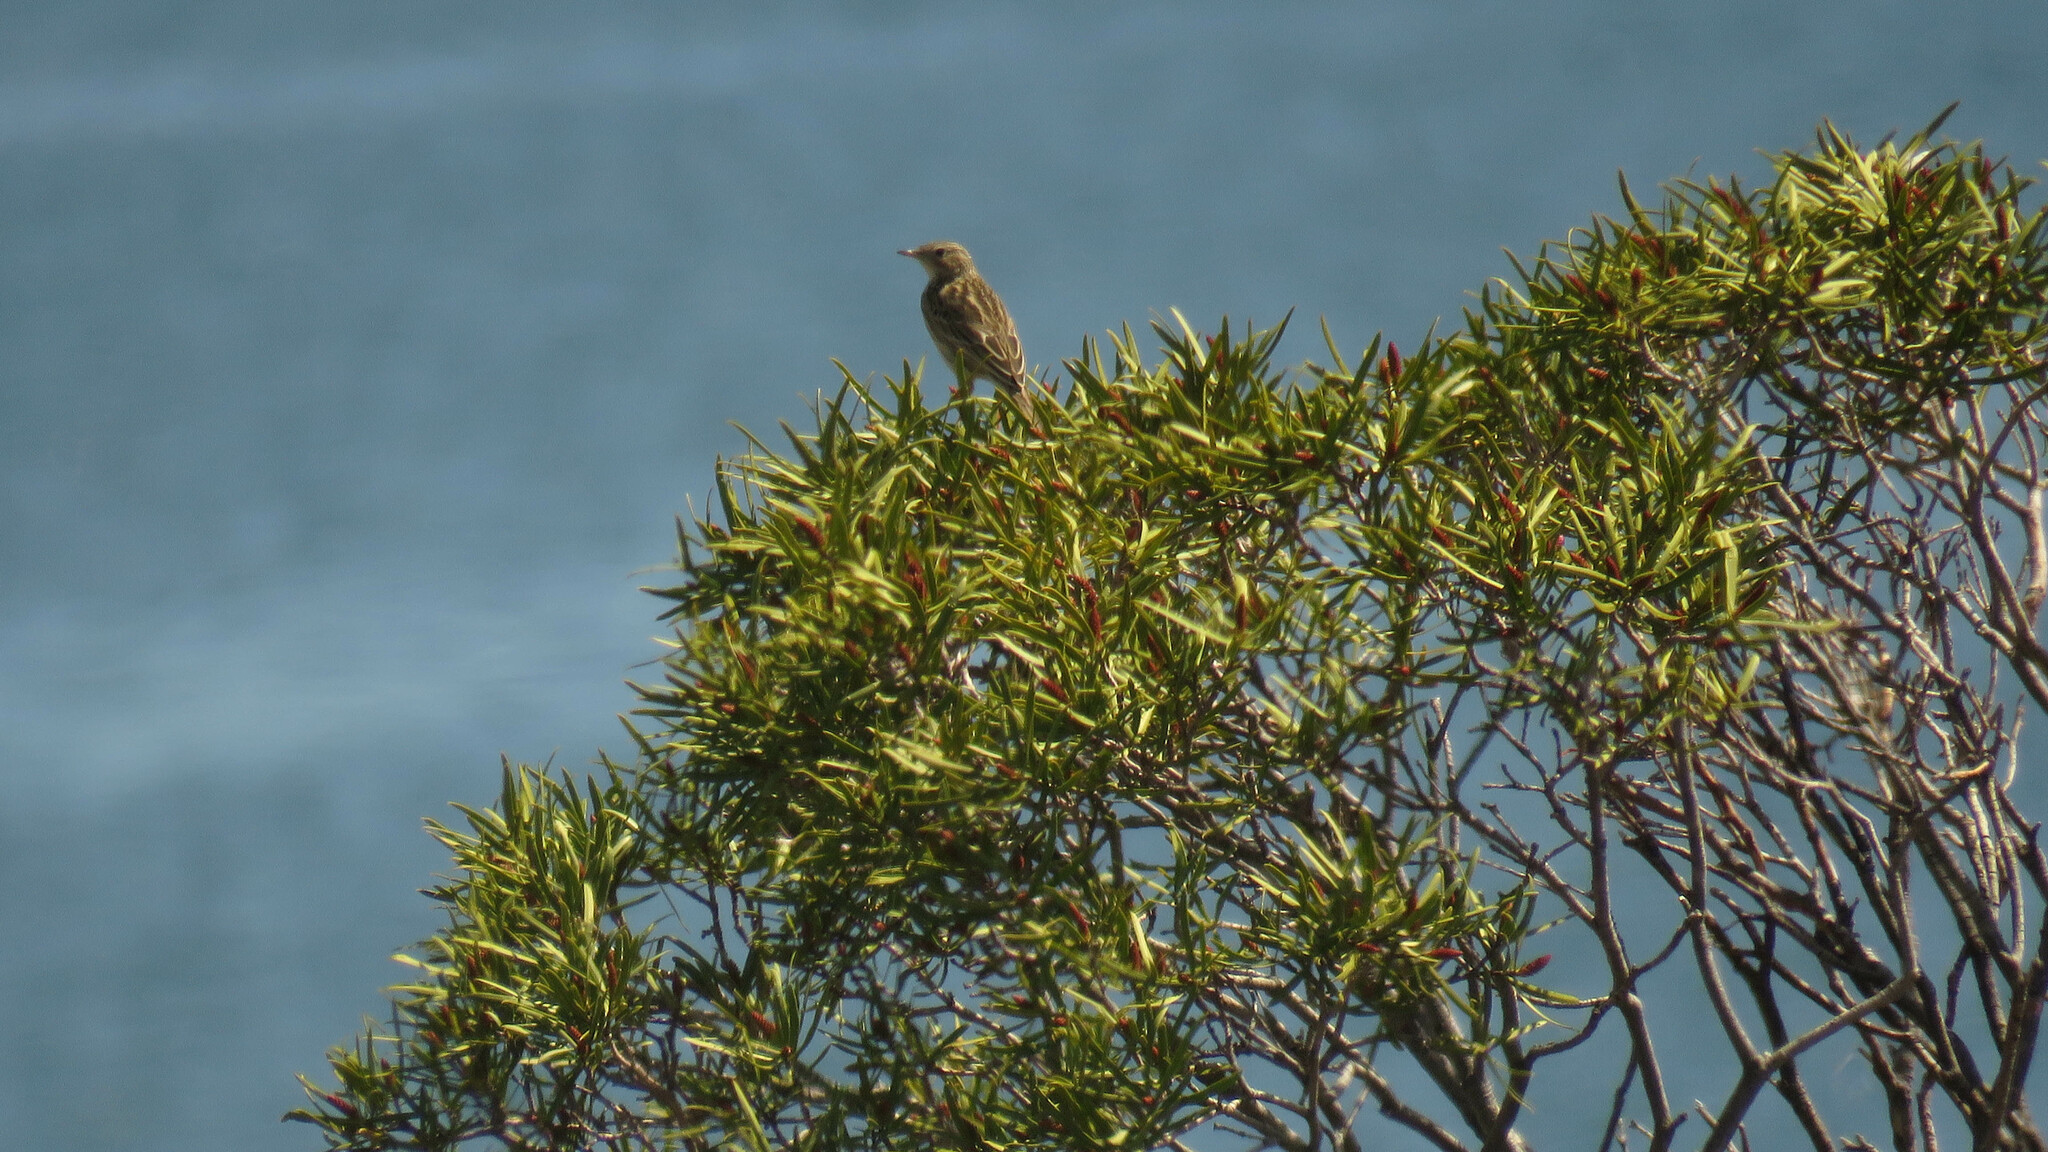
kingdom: Animalia
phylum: Chordata
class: Aves
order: Passeriformes
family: Motacillidae
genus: Anthus
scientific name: Anthus hellmayri
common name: Hellmayr's pipit
